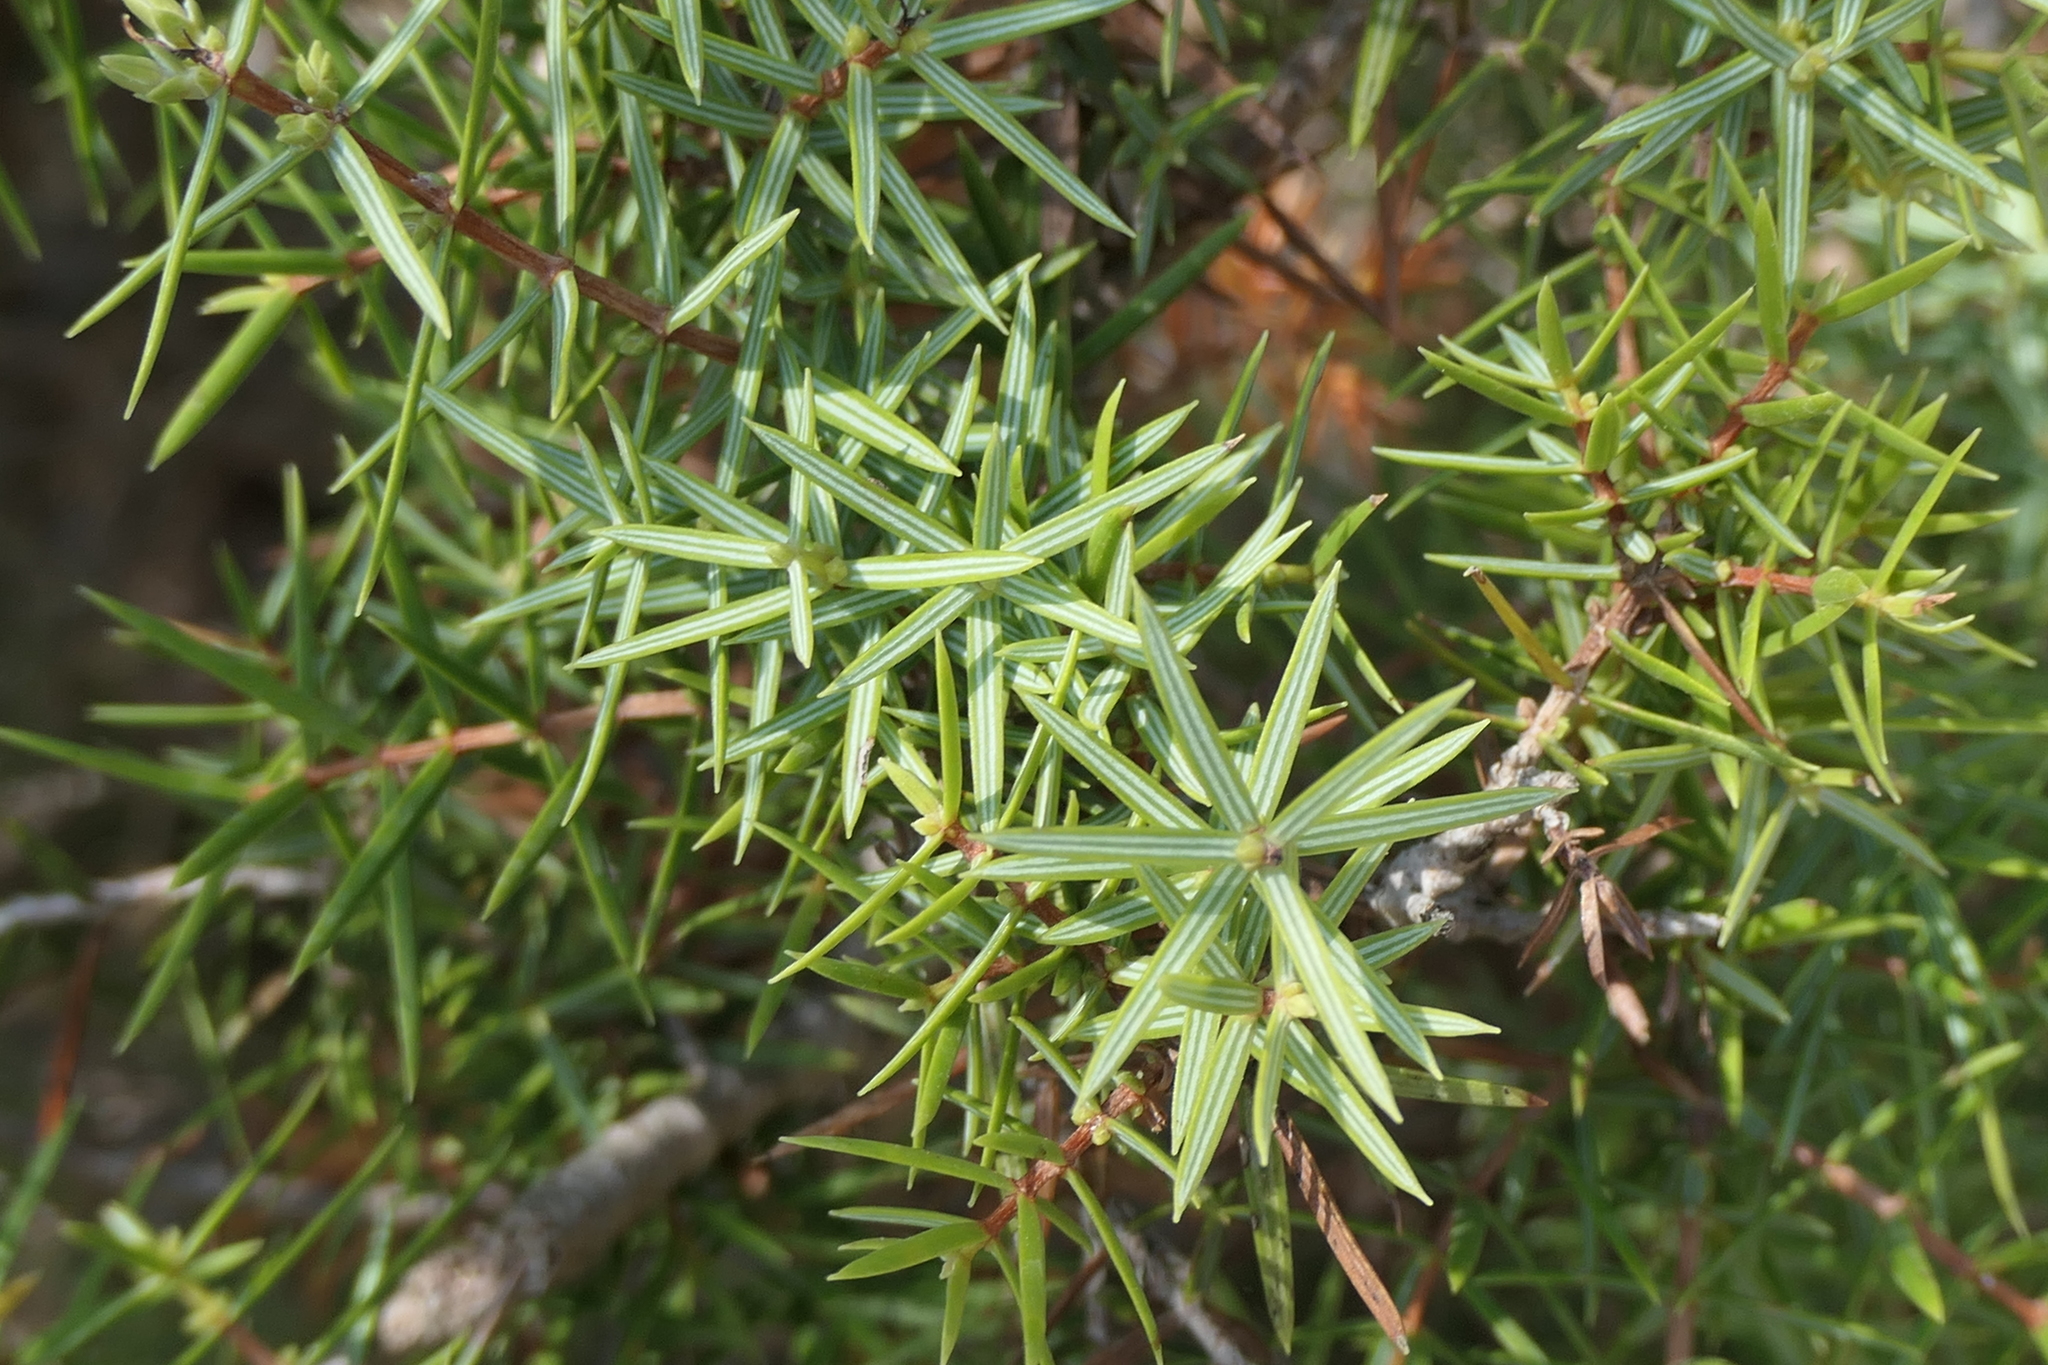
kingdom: Plantae
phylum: Tracheophyta
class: Pinopsida
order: Pinales
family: Cupressaceae
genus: Juniperus
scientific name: Juniperus oxycedrus
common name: Prickly juniper
